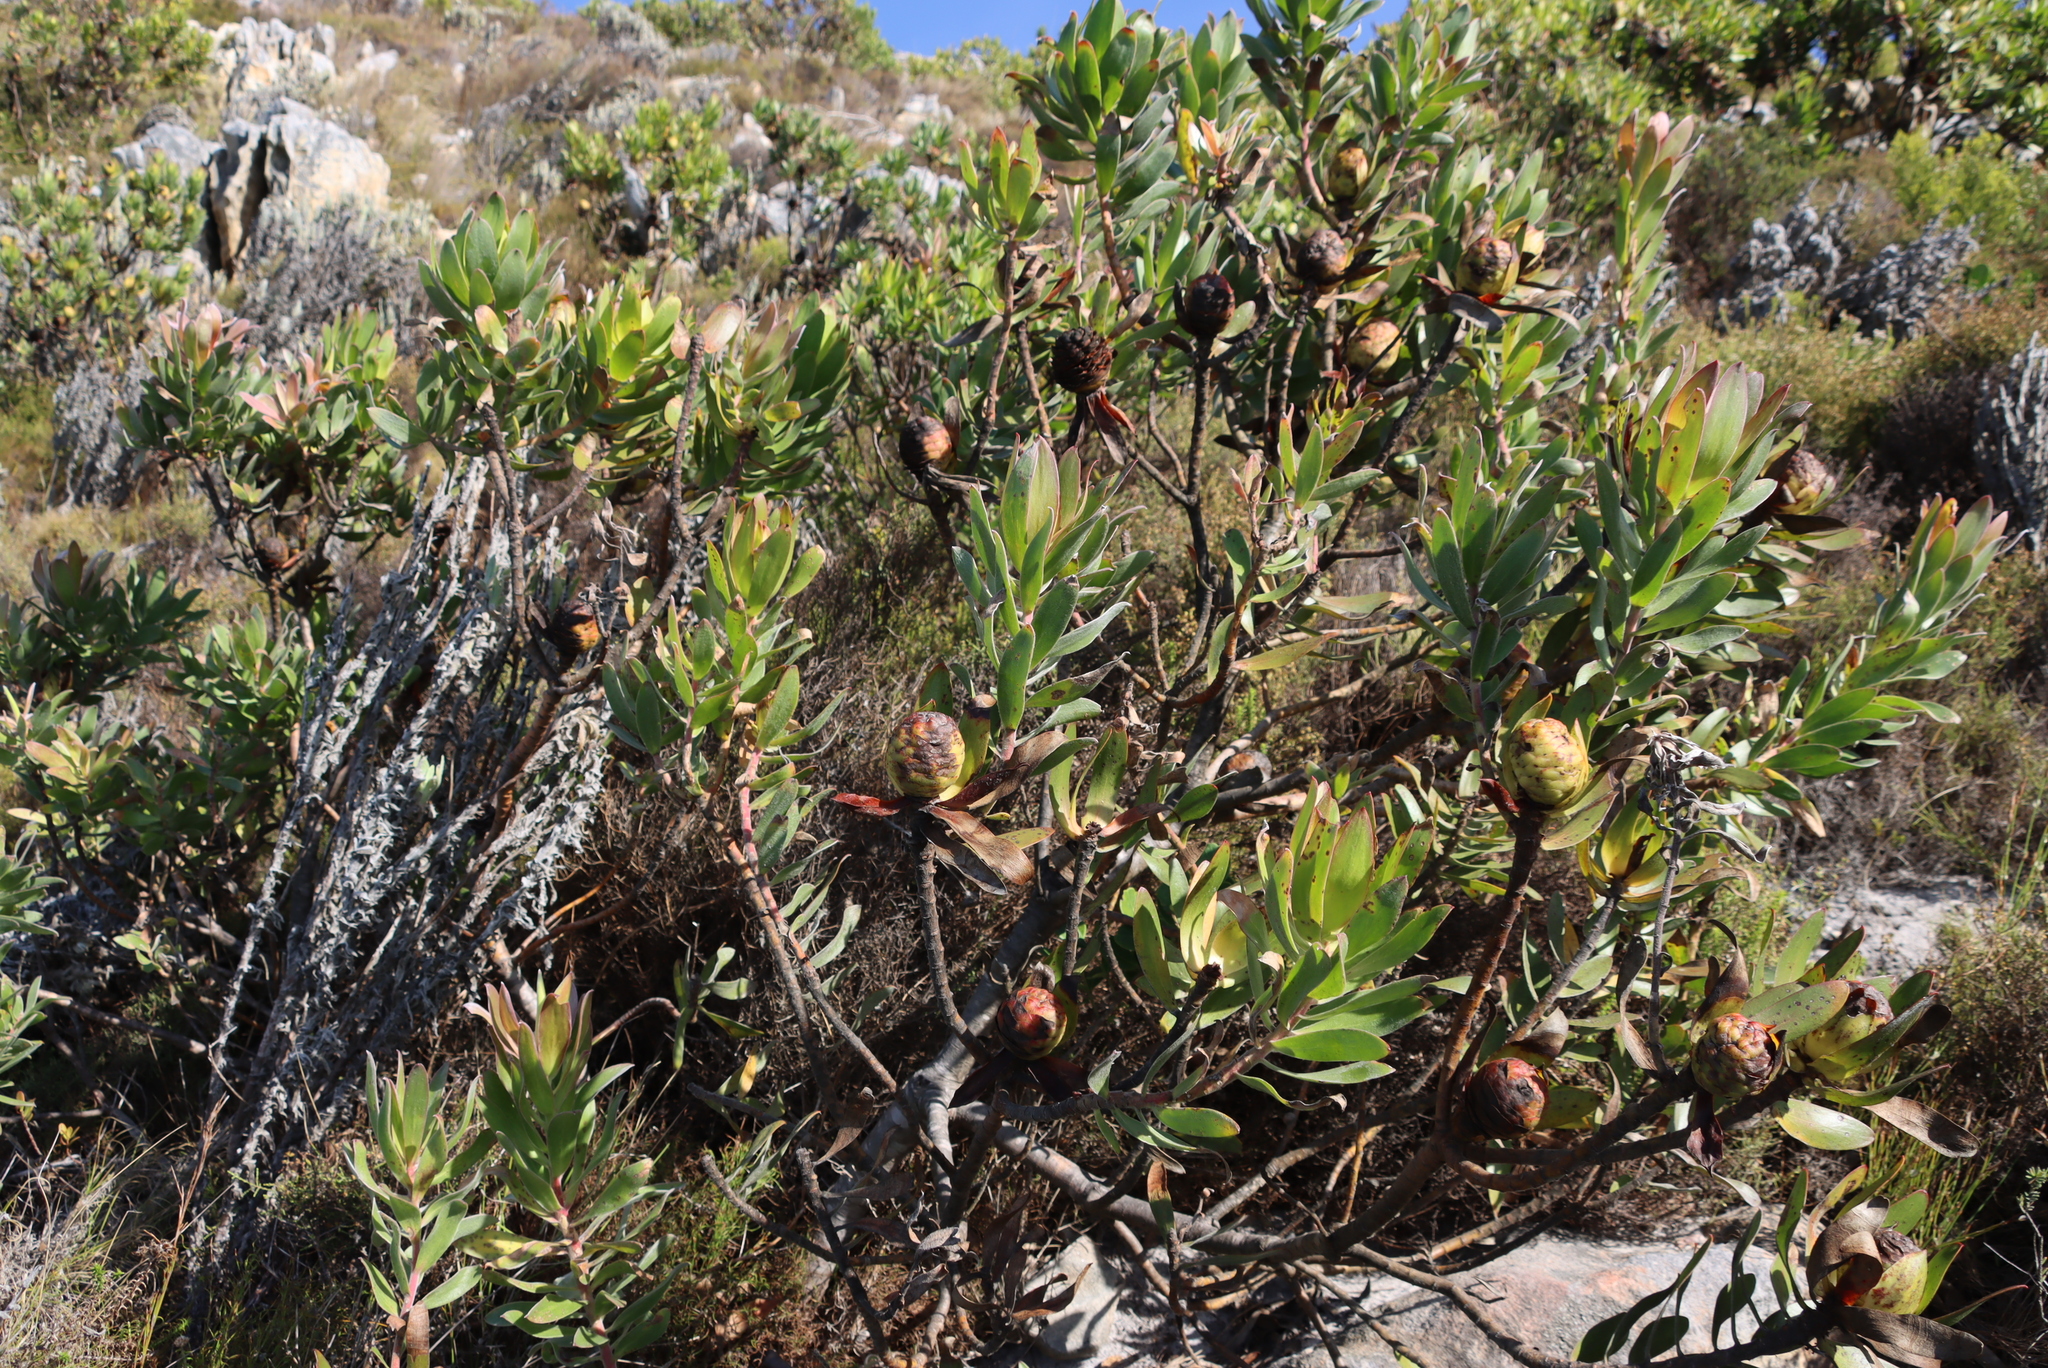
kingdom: Plantae
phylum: Tracheophyta
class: Magnoliopsida
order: Proteales
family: Proteaceae
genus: Leucadendron
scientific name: Leucadendron laureolum
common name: Golden sunshinebush
